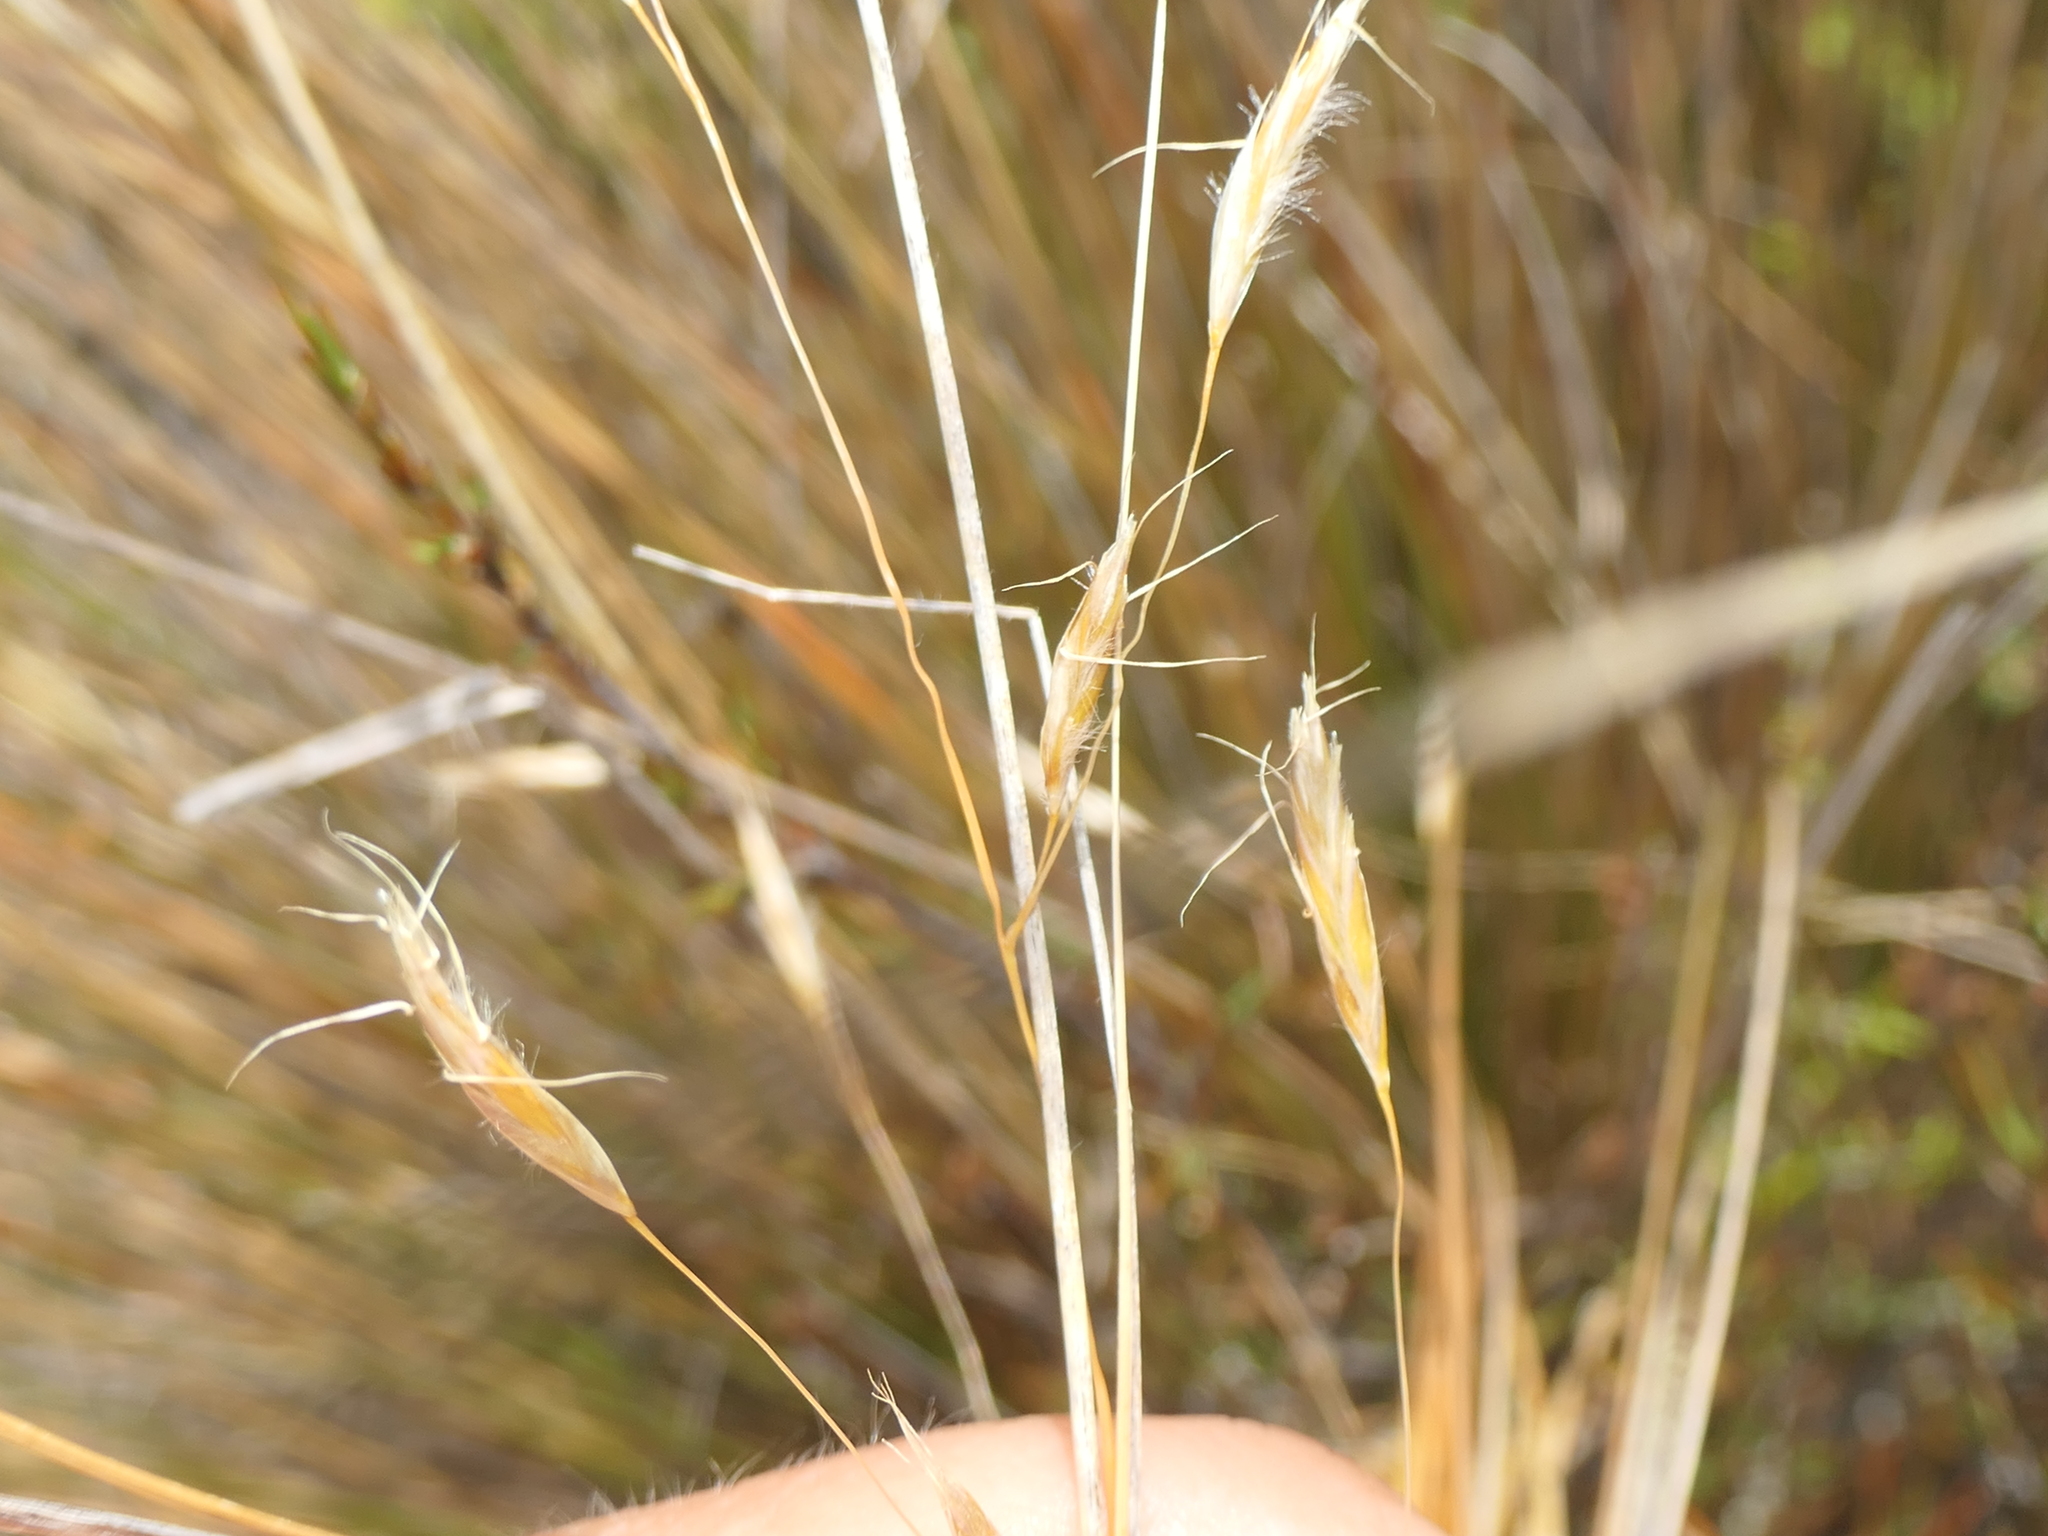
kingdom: Plantae
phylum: Tracheophyta
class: Liliopsida
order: Poales
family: Poaceae
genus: Chionochloa
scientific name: Chionochloa rubra
